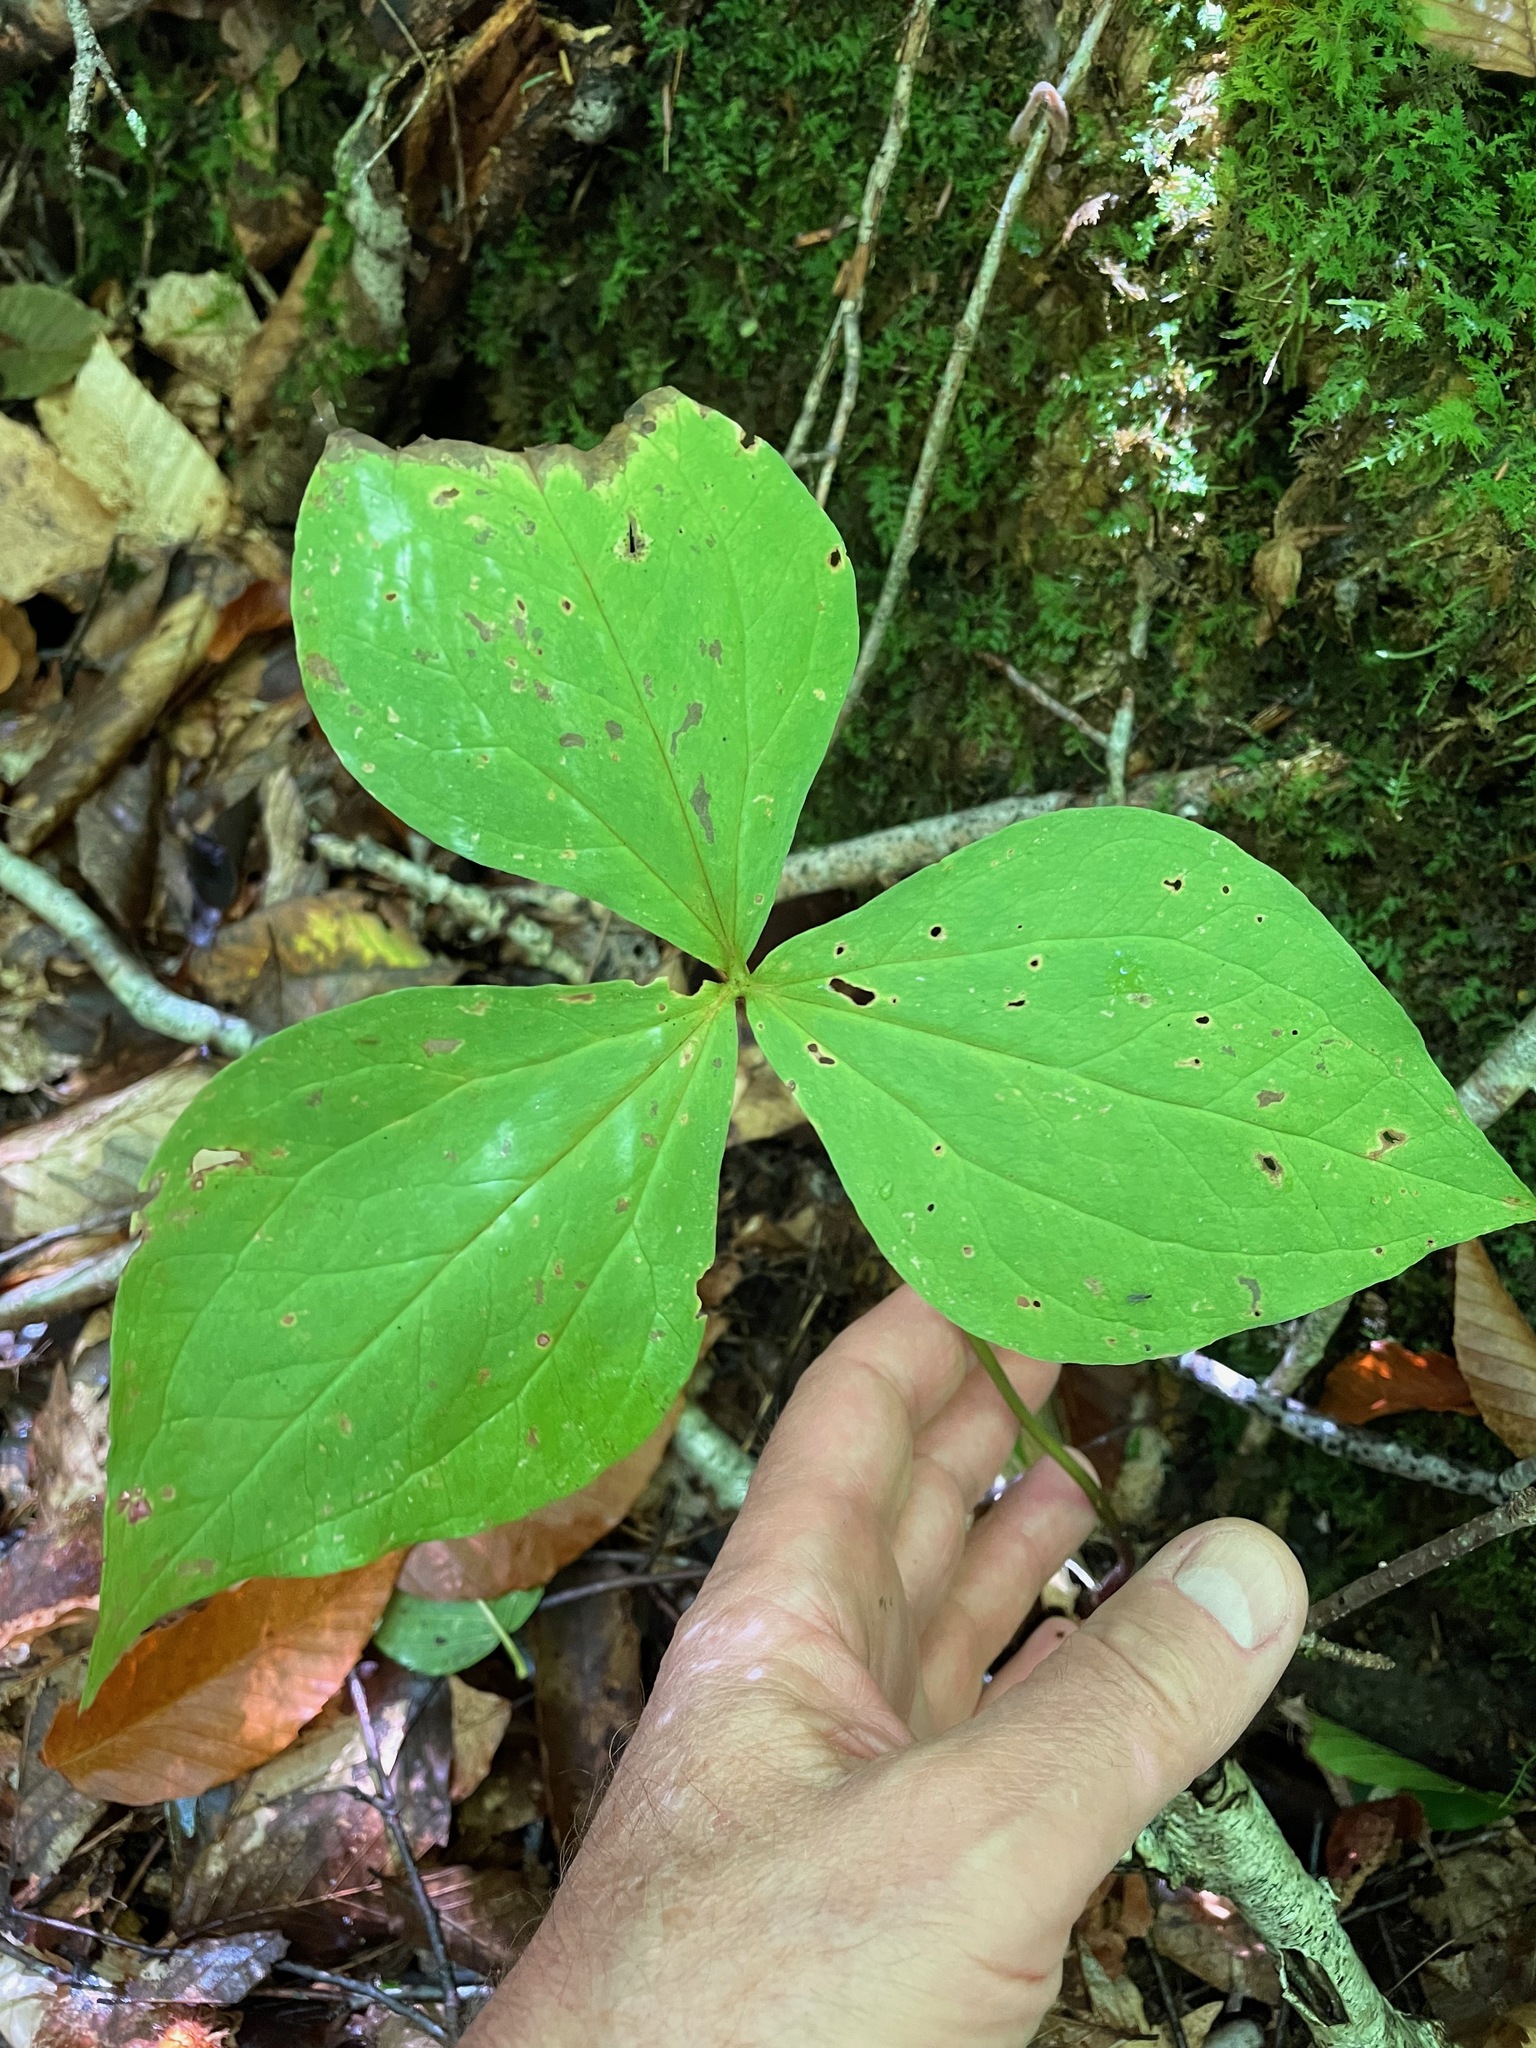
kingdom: Plantae
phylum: Tracheophyta
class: Liliopsida
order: Liliales
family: Melanthiaceae
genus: Trillium
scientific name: Trillium grandiflorum
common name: Great white trillium
